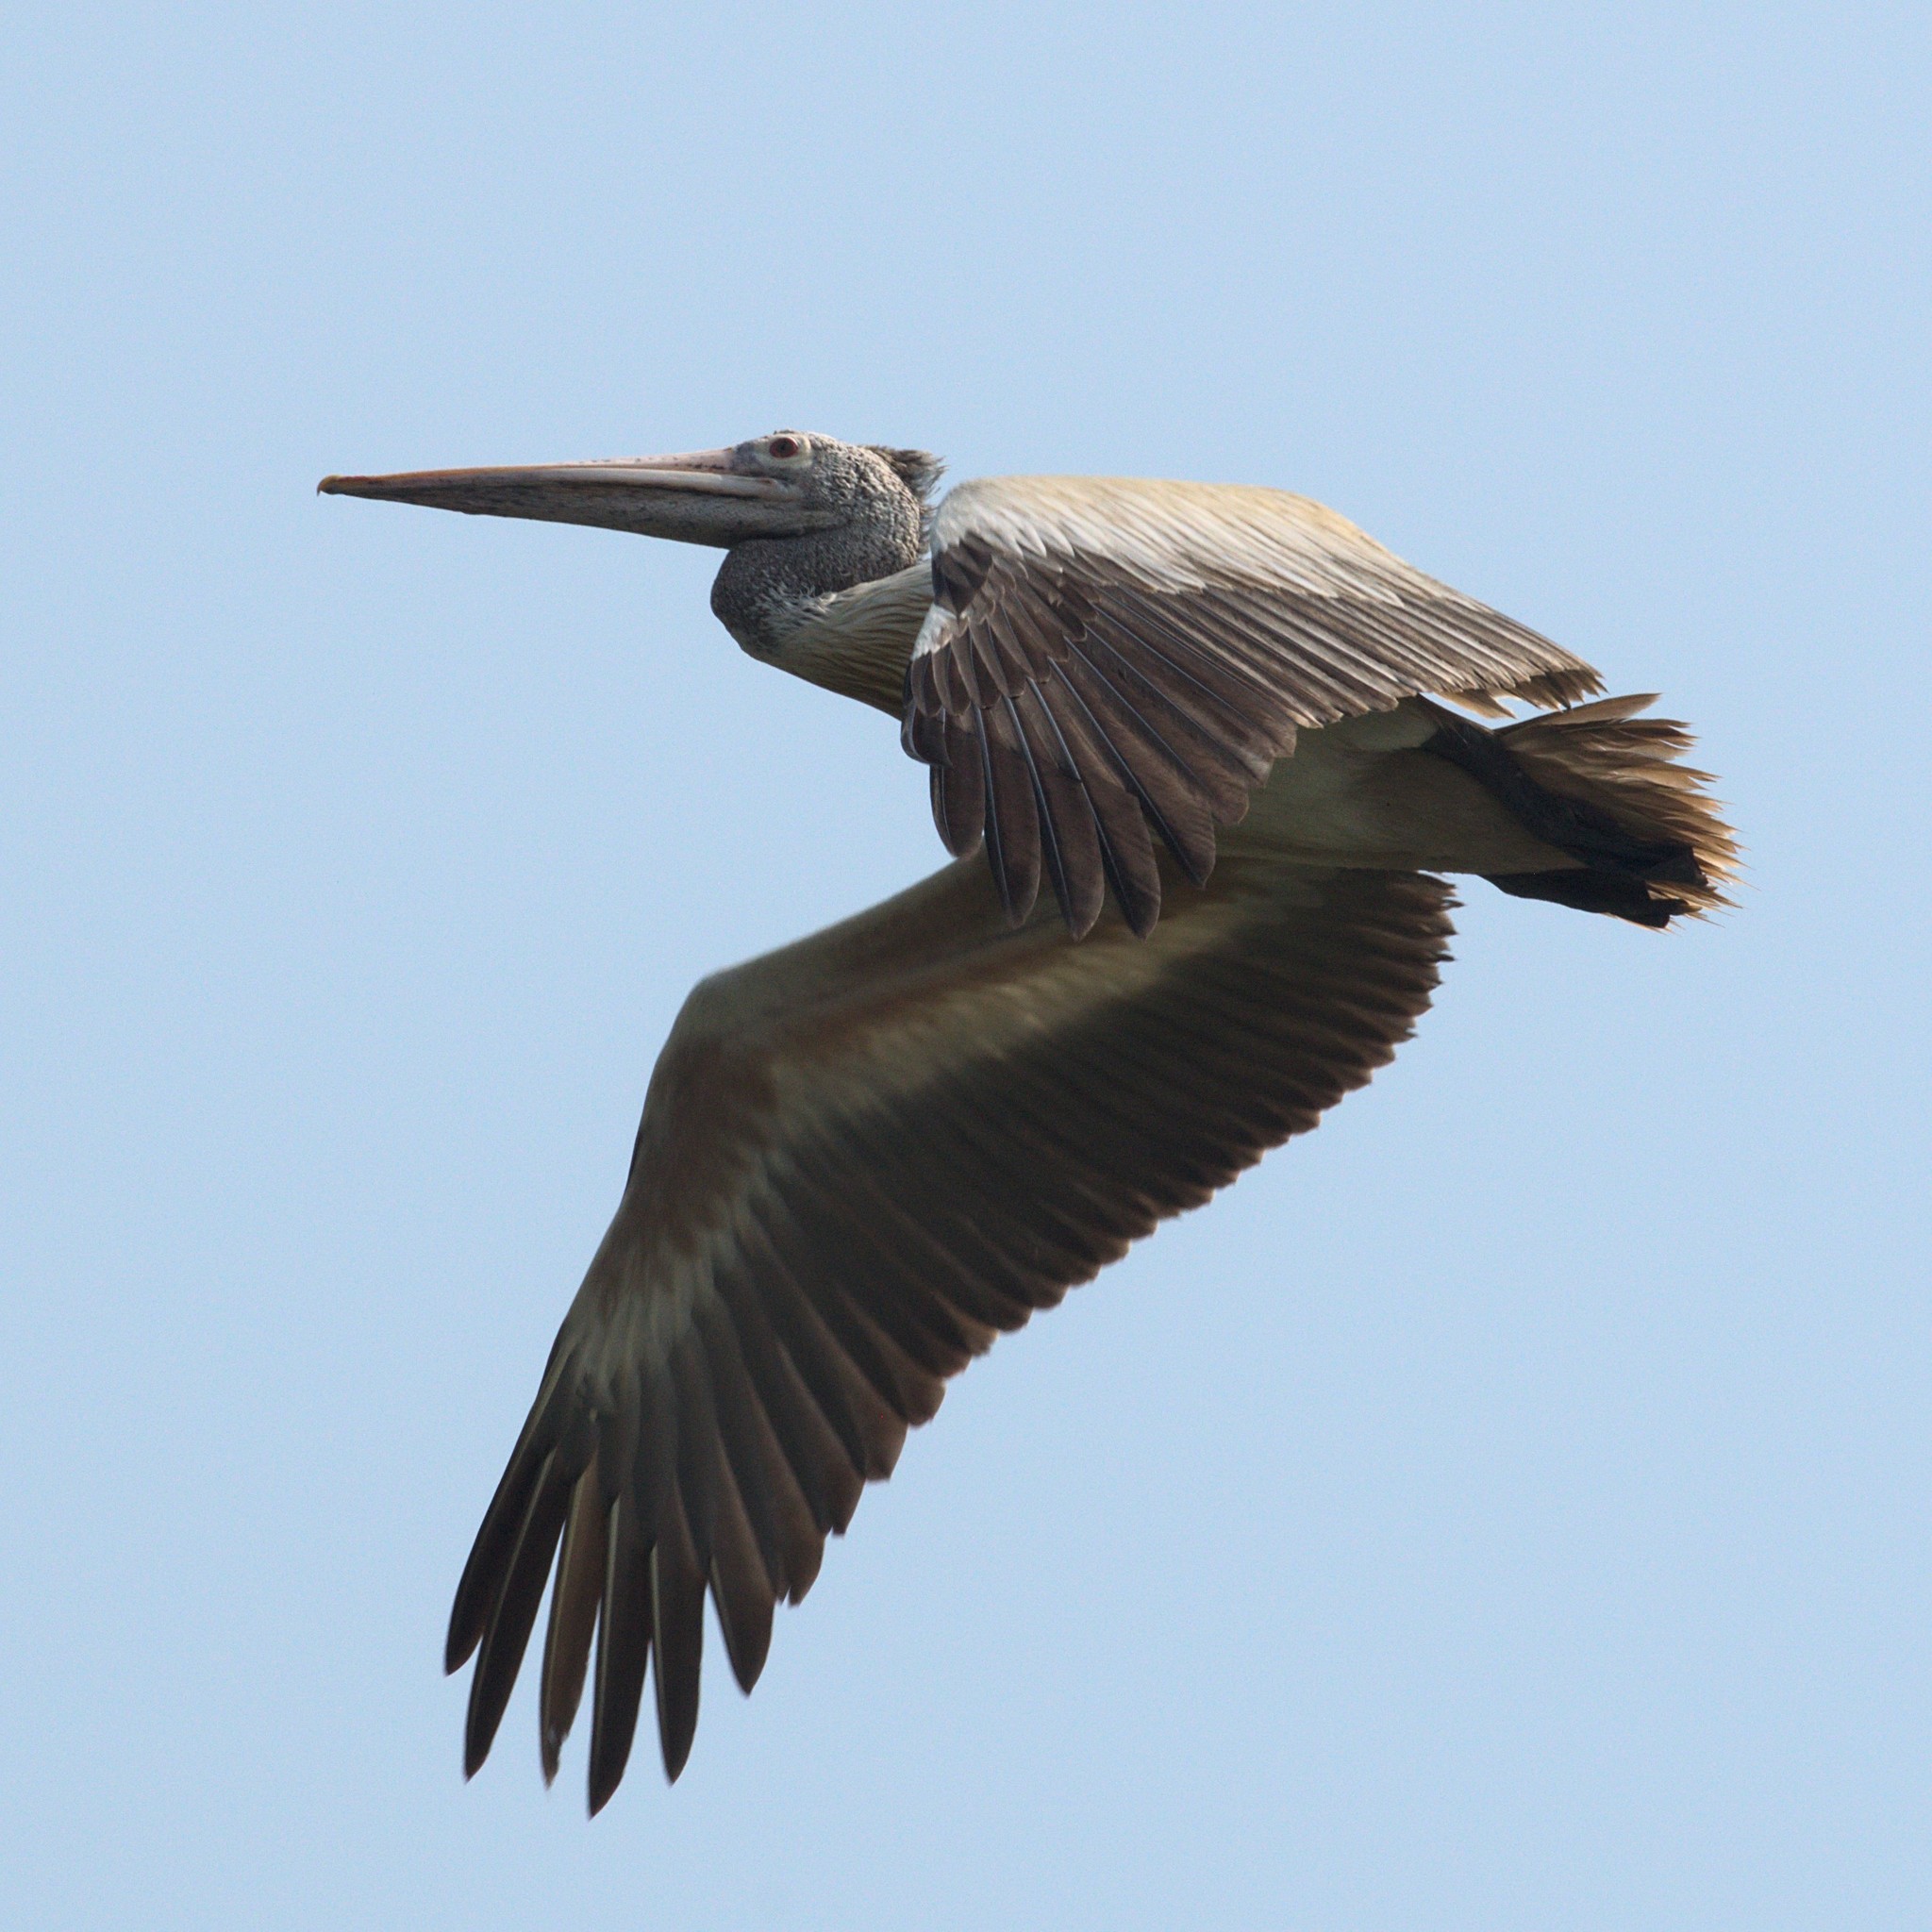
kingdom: Animalia
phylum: Chordata
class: Aves
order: Pelecaniformes
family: Pelecanidae
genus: Pelecanus
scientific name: Pelecanus philippensis
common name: Spot-billed pelican
